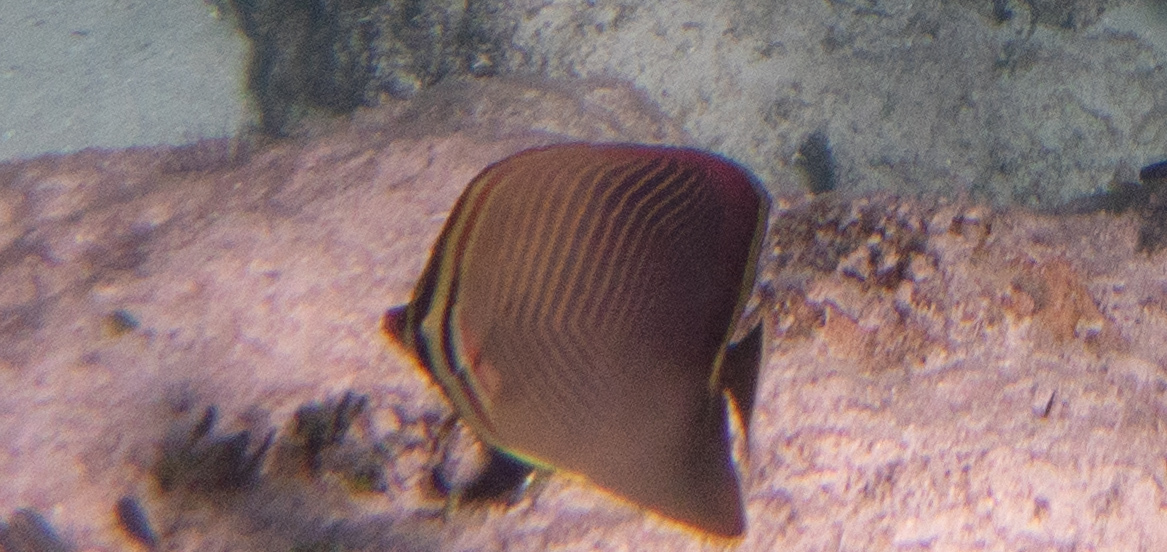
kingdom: Animalia
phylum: Chordata
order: Perciformes
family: Chaetodontidae
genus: Chaetodon
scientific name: Chaetodon baronessa
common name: Triangular butterflyfish
